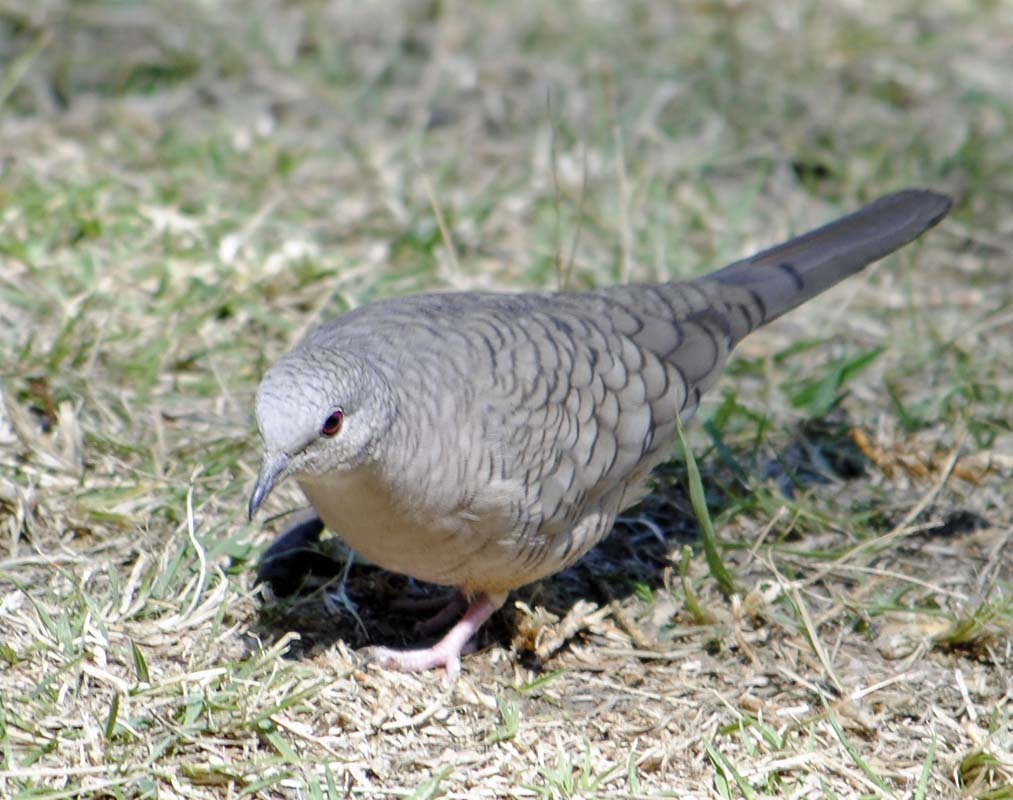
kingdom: Animalia
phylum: Chordata
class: Aves
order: Columbiformes
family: Columbidae
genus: Columbina
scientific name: Columbina inca
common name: Inca dove
